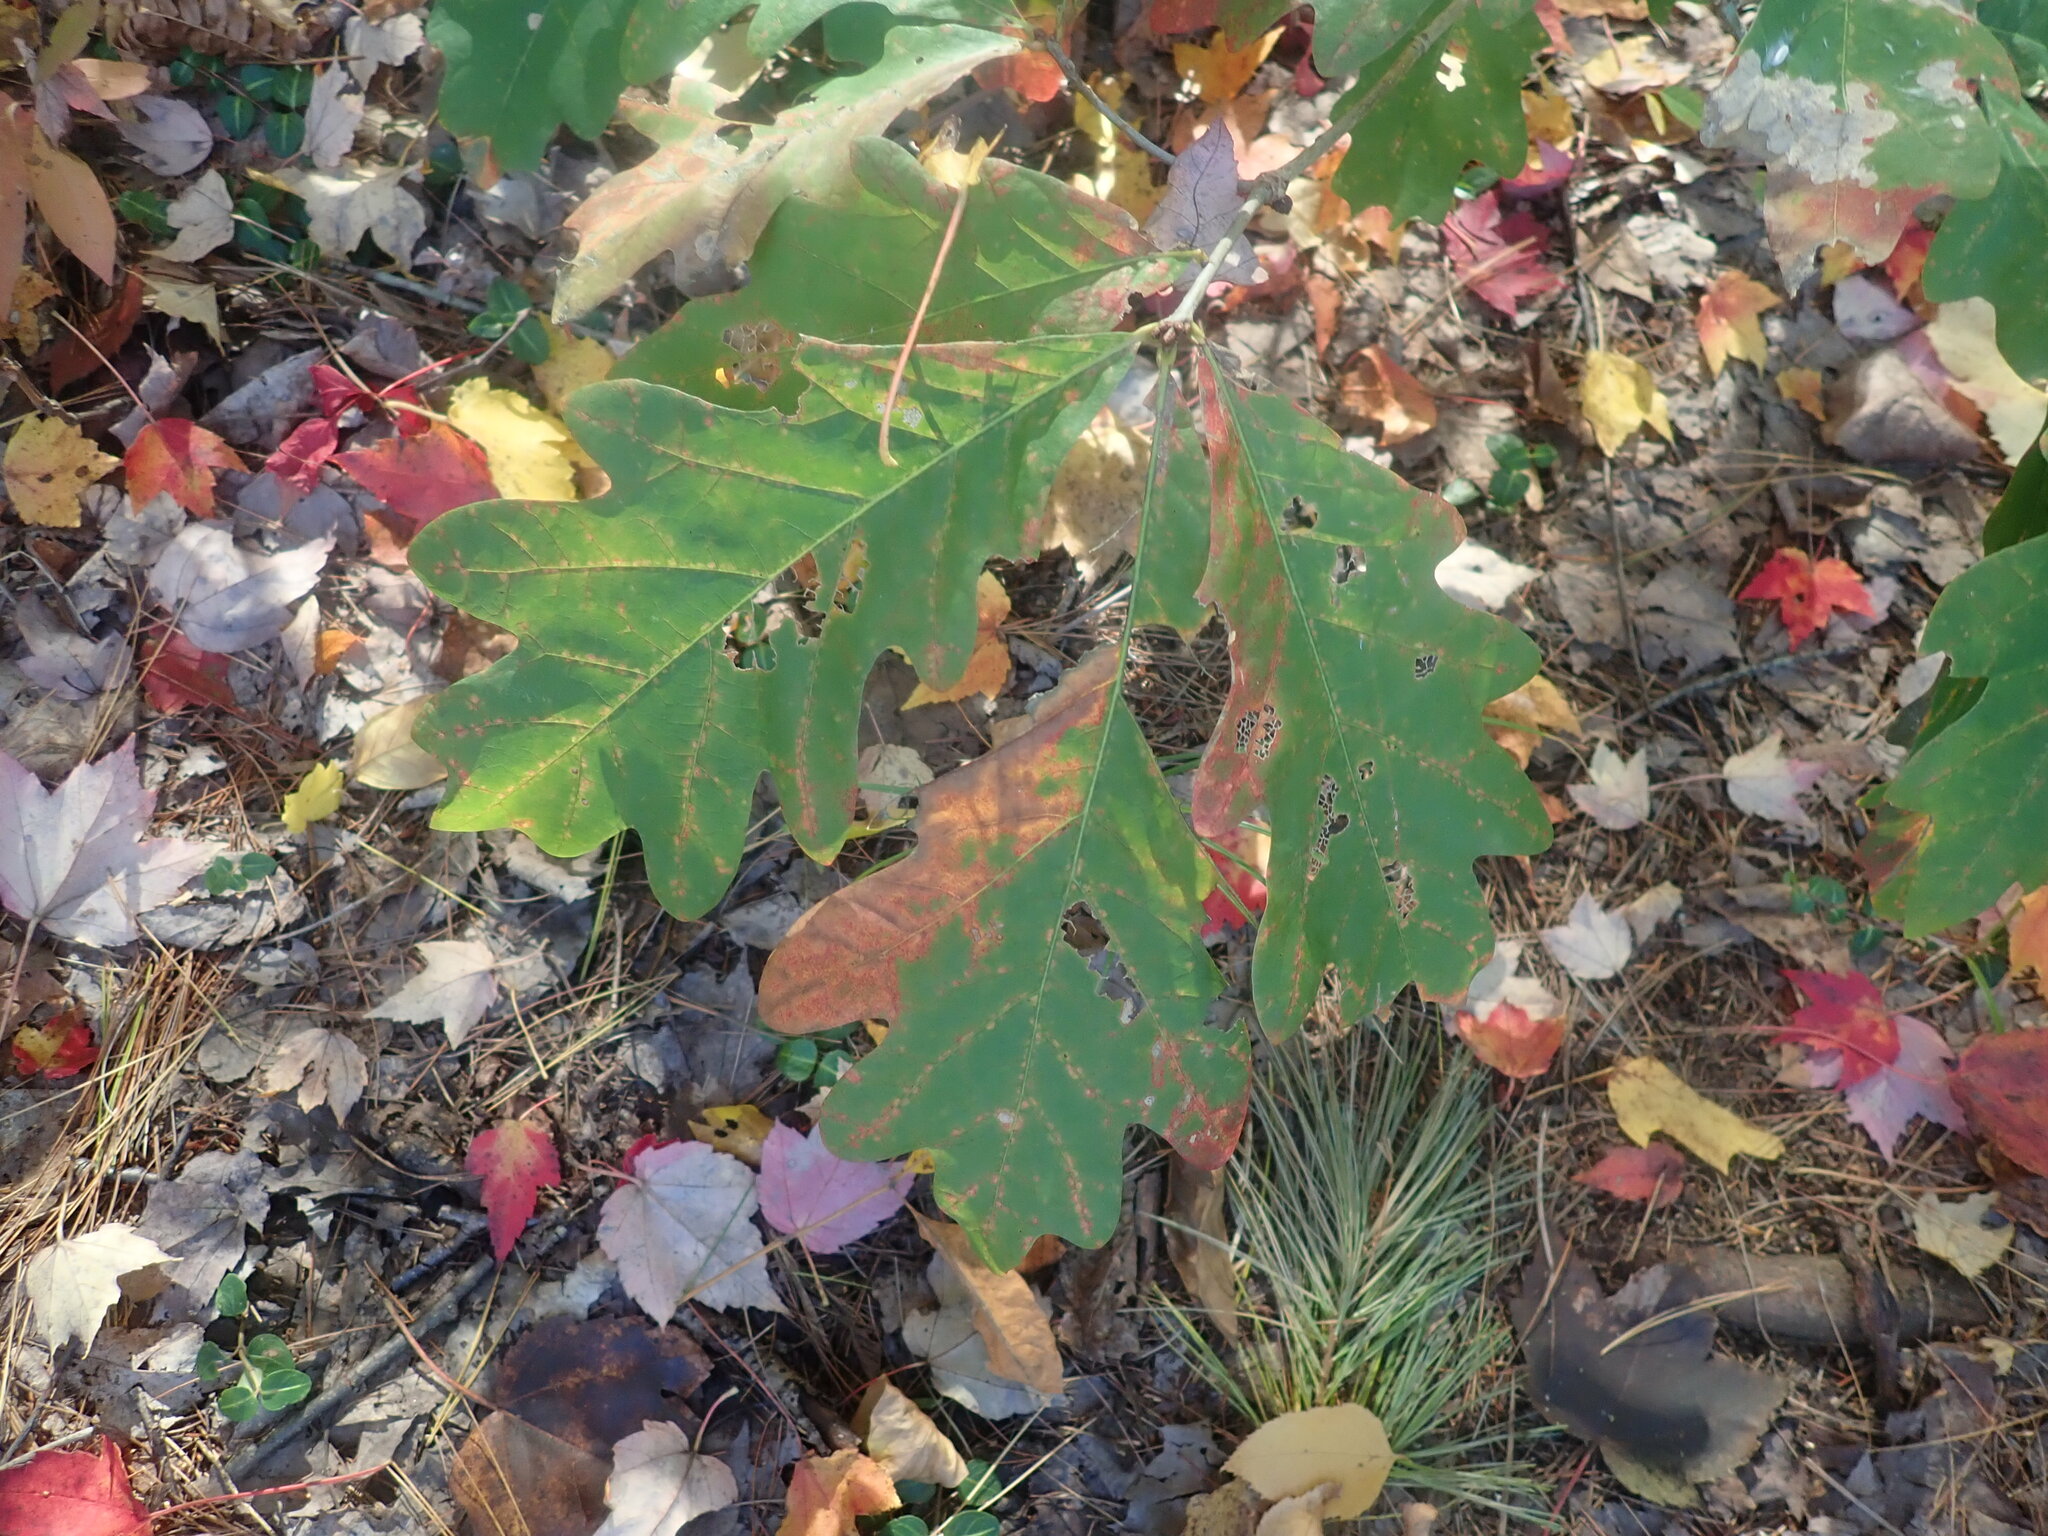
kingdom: Plantae
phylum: Tracheophyta
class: Magnoliopsida
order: Fagales
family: Fagaceae
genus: Quercus
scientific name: Quercus alba
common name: White oak
